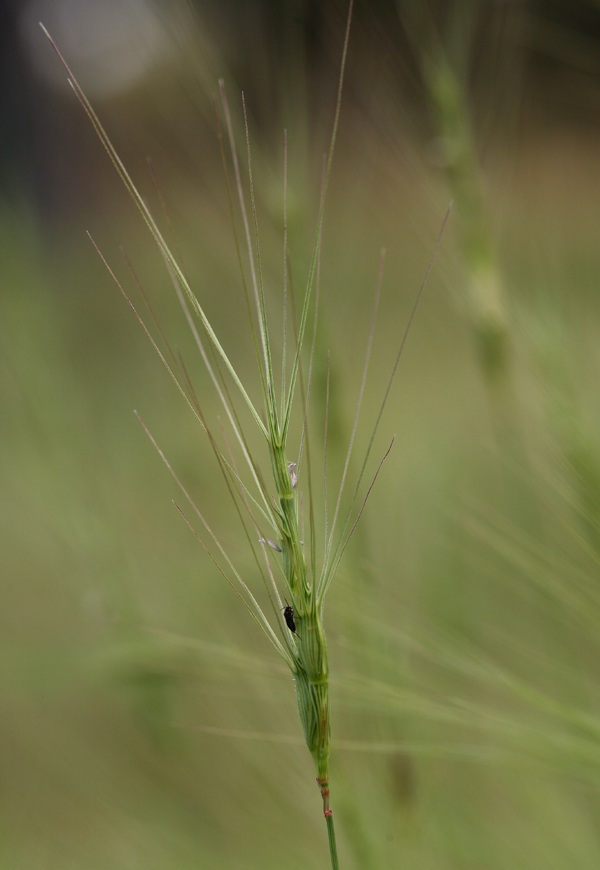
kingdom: Plantae
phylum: Tracheophyta
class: Liliopsida
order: Poales
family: Poaceae
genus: Aegilops
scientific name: Aegilops triuncialis
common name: Barb goat grass
